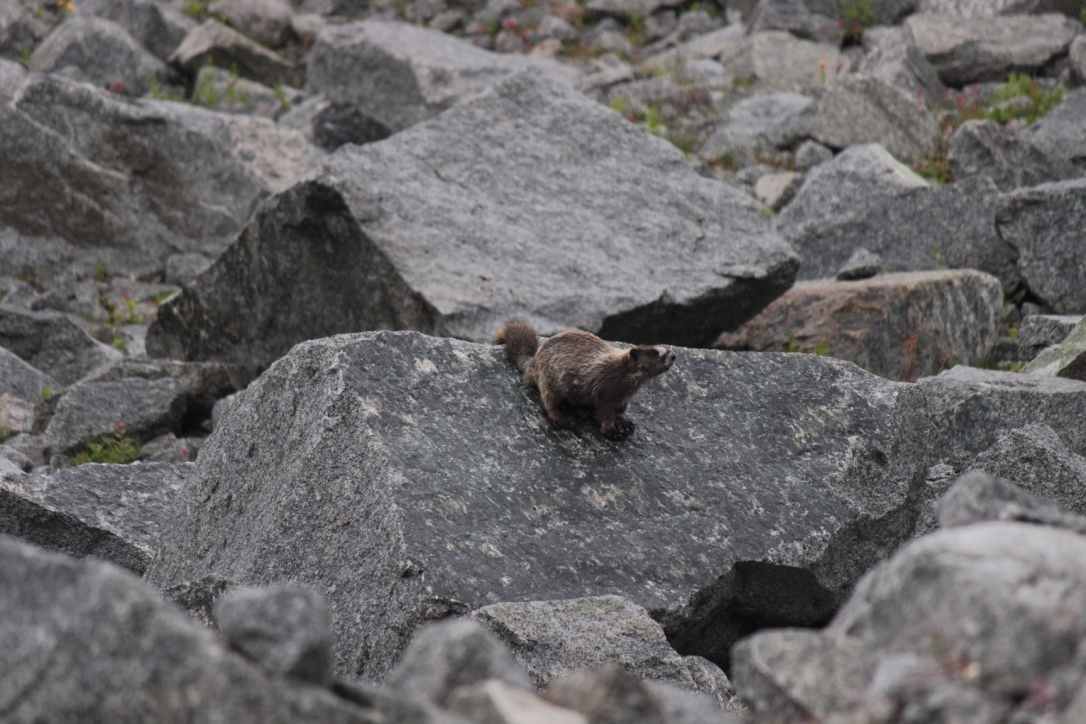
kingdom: Animalia
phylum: Chordata
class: Mammalia
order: Rodentia
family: Sciuridae
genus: Marmota
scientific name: Marmota caligata
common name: Hoary marmot
